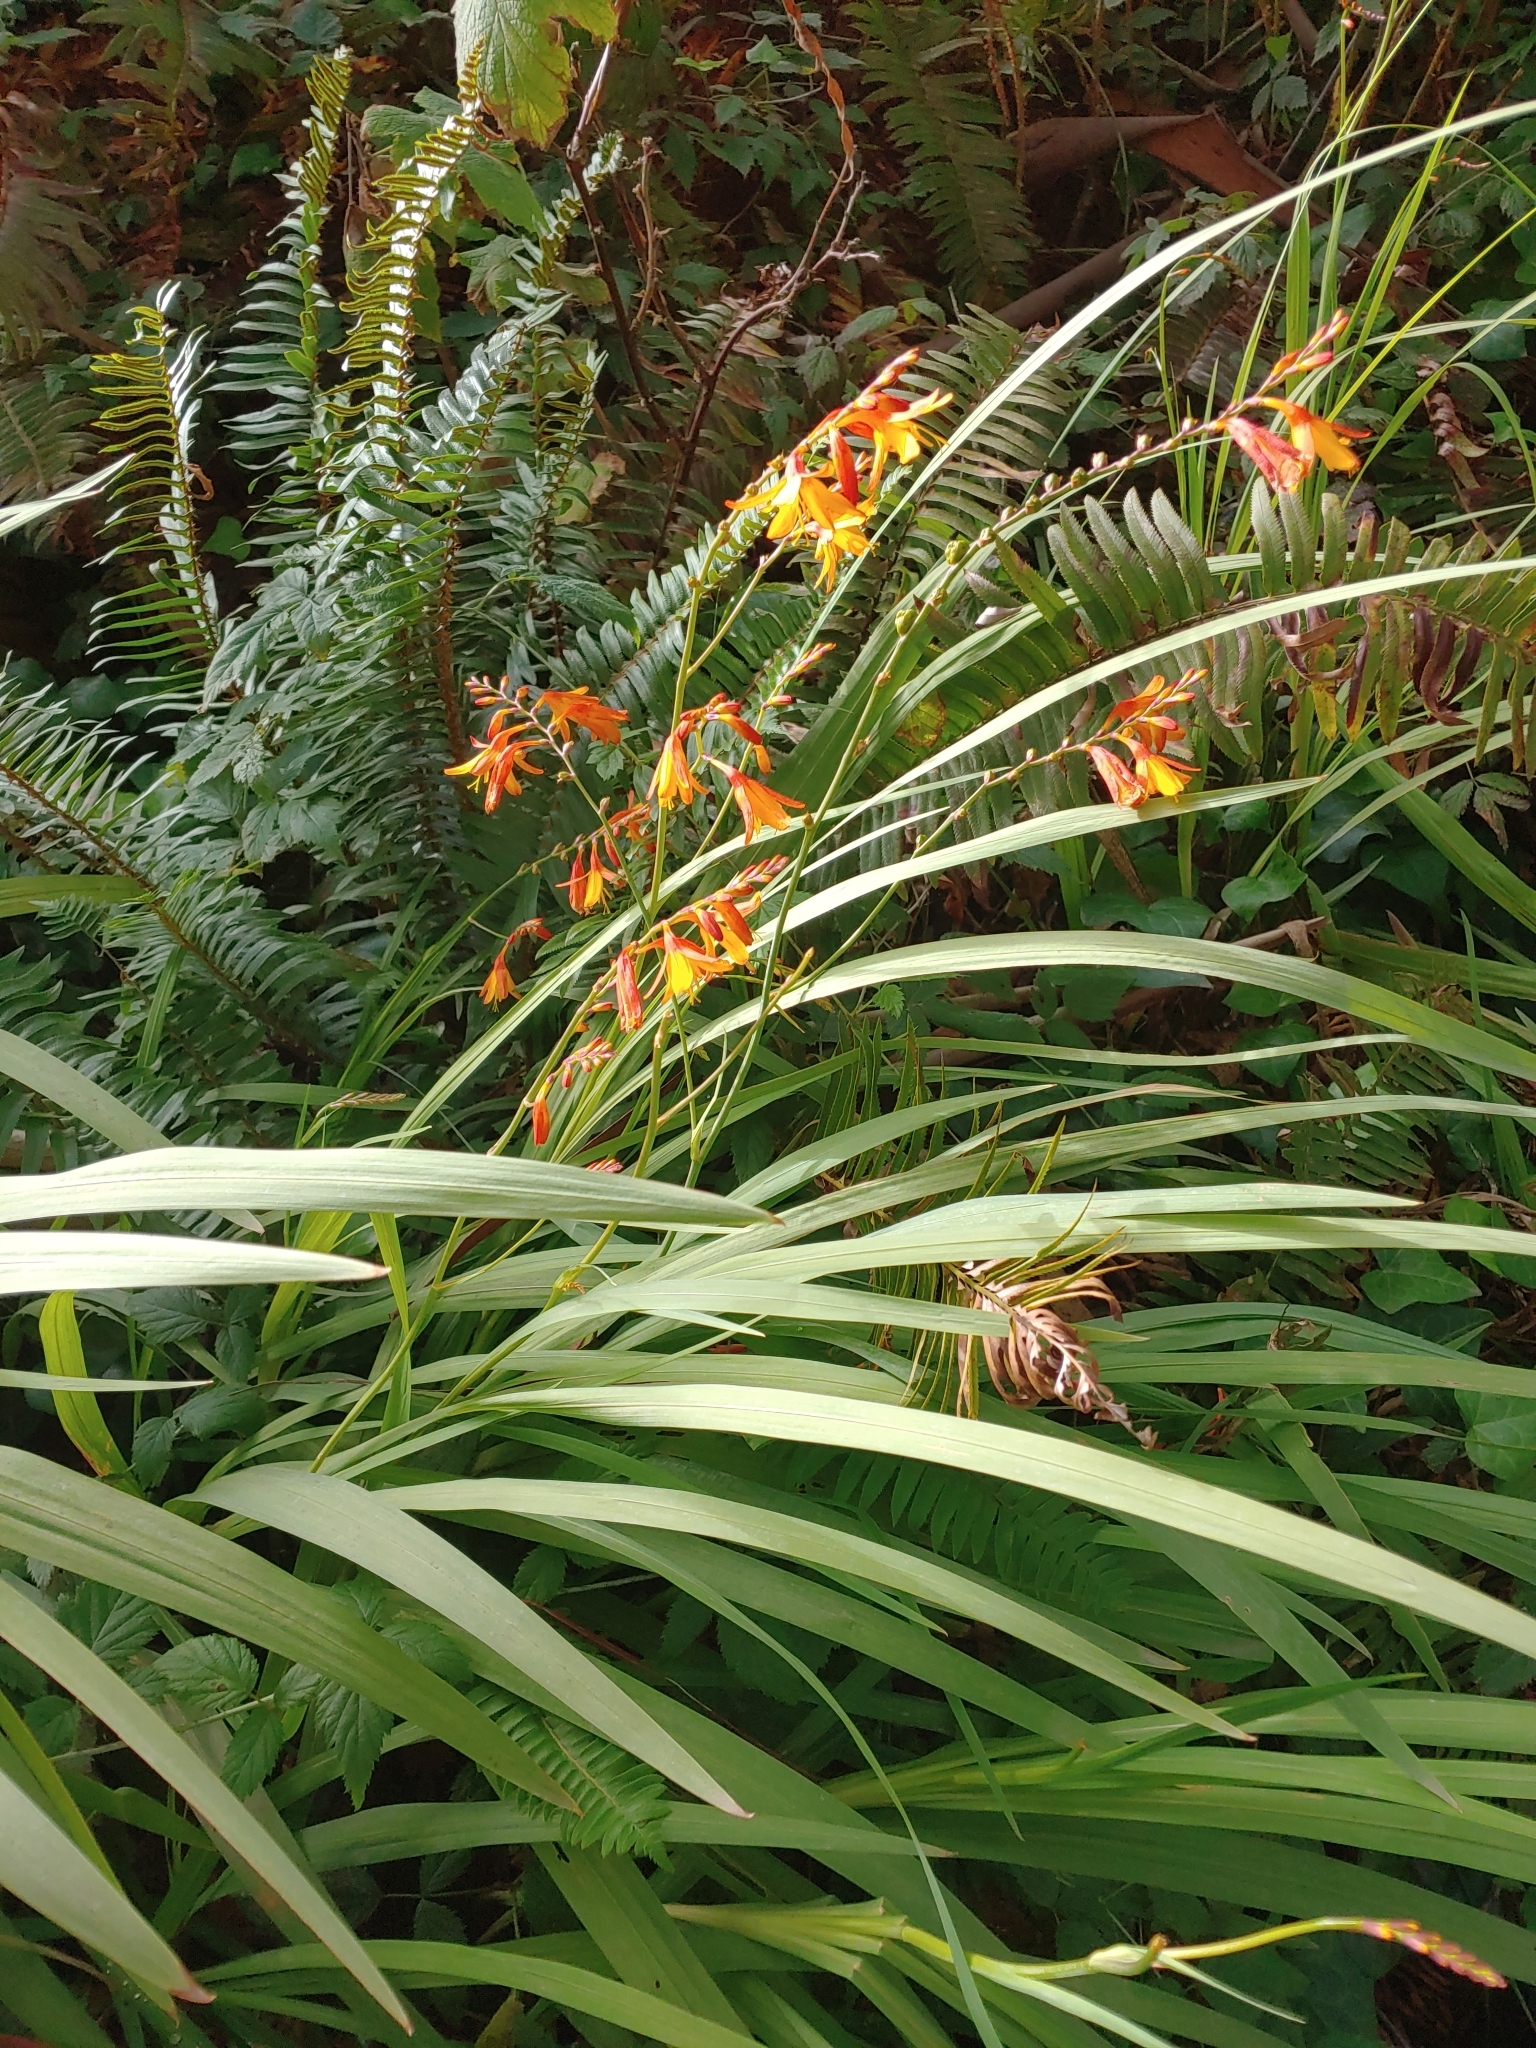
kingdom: Plantae
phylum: Tracheophyta
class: Liliopsida
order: Asparagales
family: Iridaceae
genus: Crocosmia
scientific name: Crocosmia crocosmiiflora
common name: Montbretia
